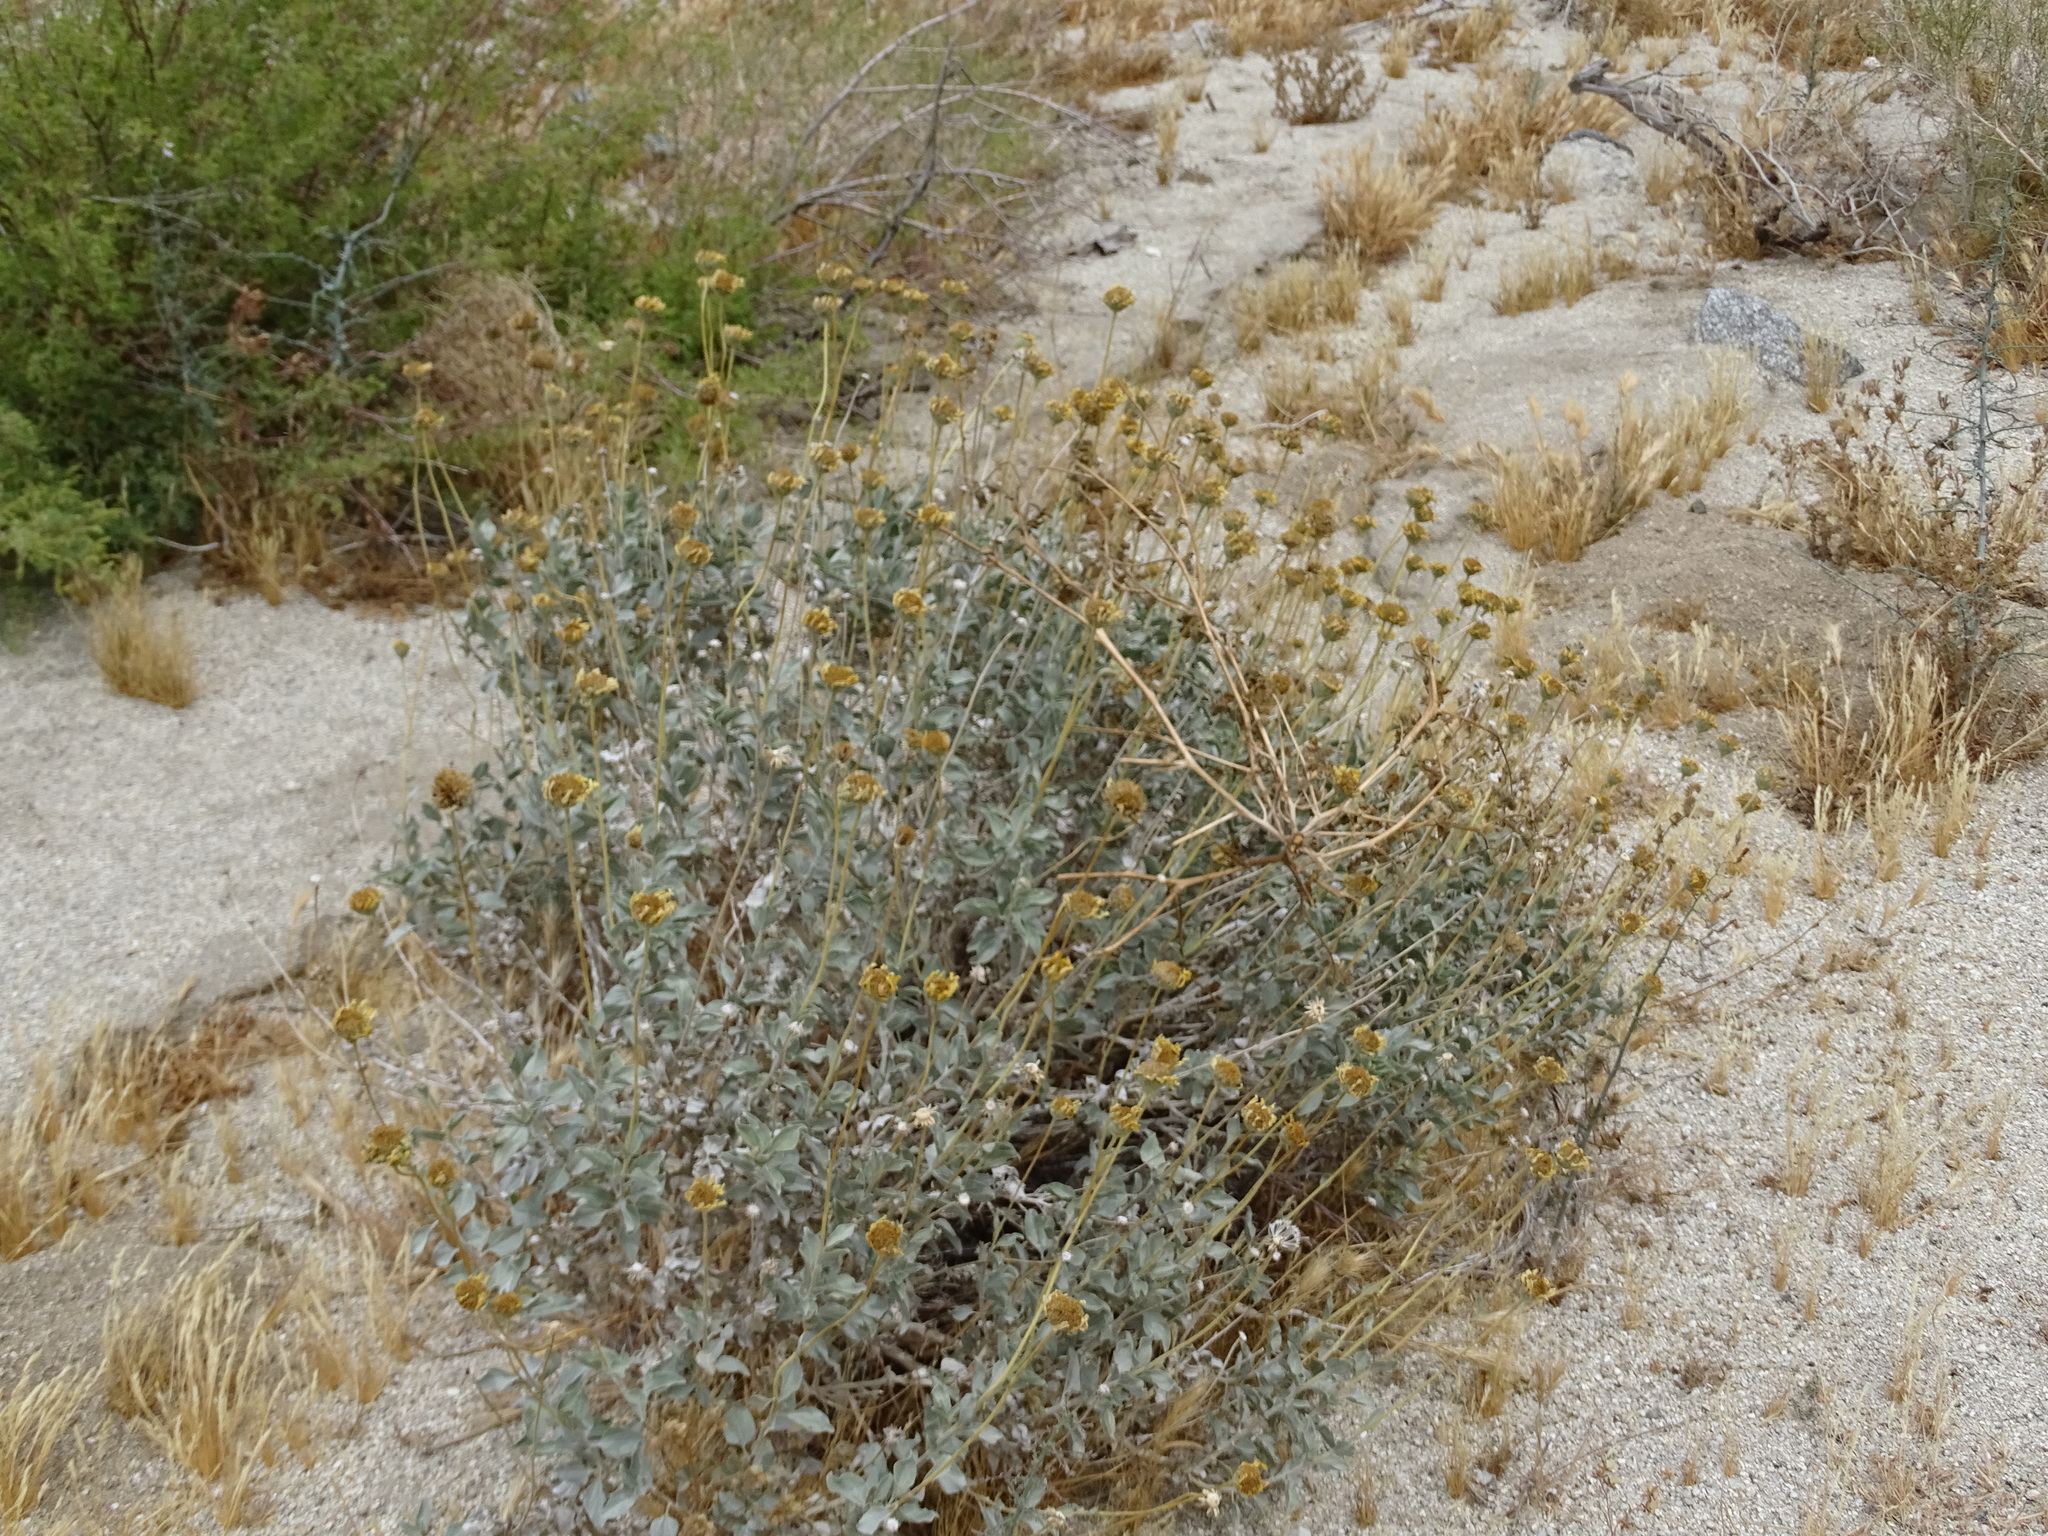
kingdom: Plantae
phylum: Tracheophyta
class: Magnoliopsida
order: Asterales
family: Asteraceae
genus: Encelia
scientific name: Encelia actoni
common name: Acton encelia
